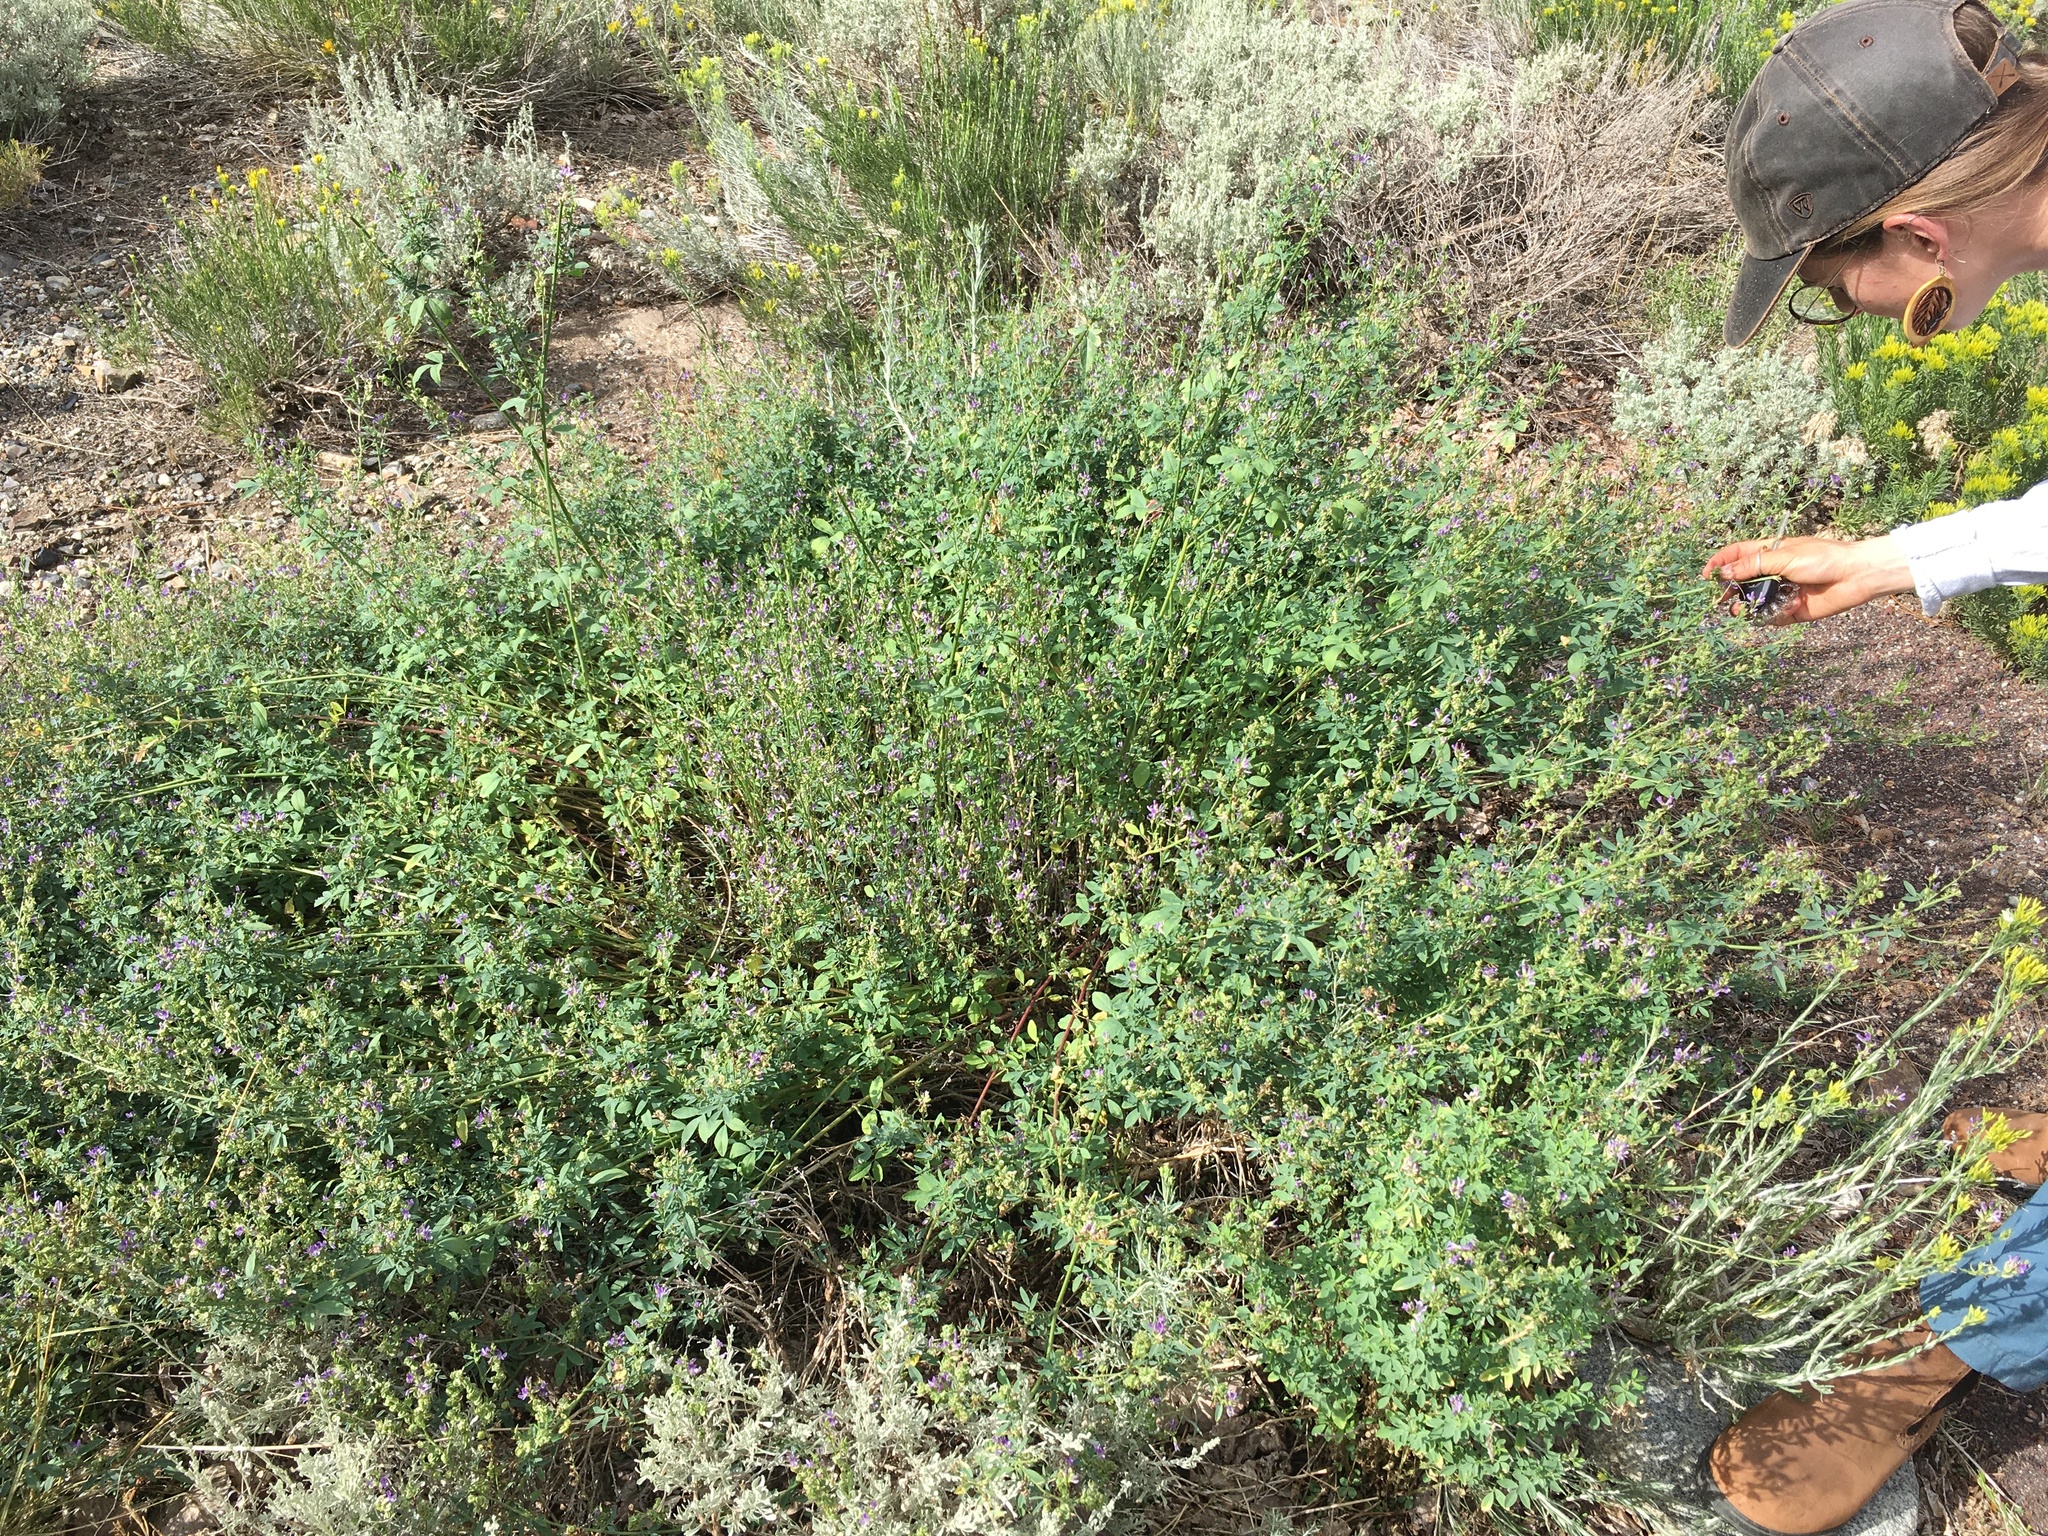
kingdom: Plantae
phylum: Tracheophyta
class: Magnoliopsida
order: Fabales
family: Fabaceae
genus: Medicago
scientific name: Medicago sativa
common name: Alfalfa
